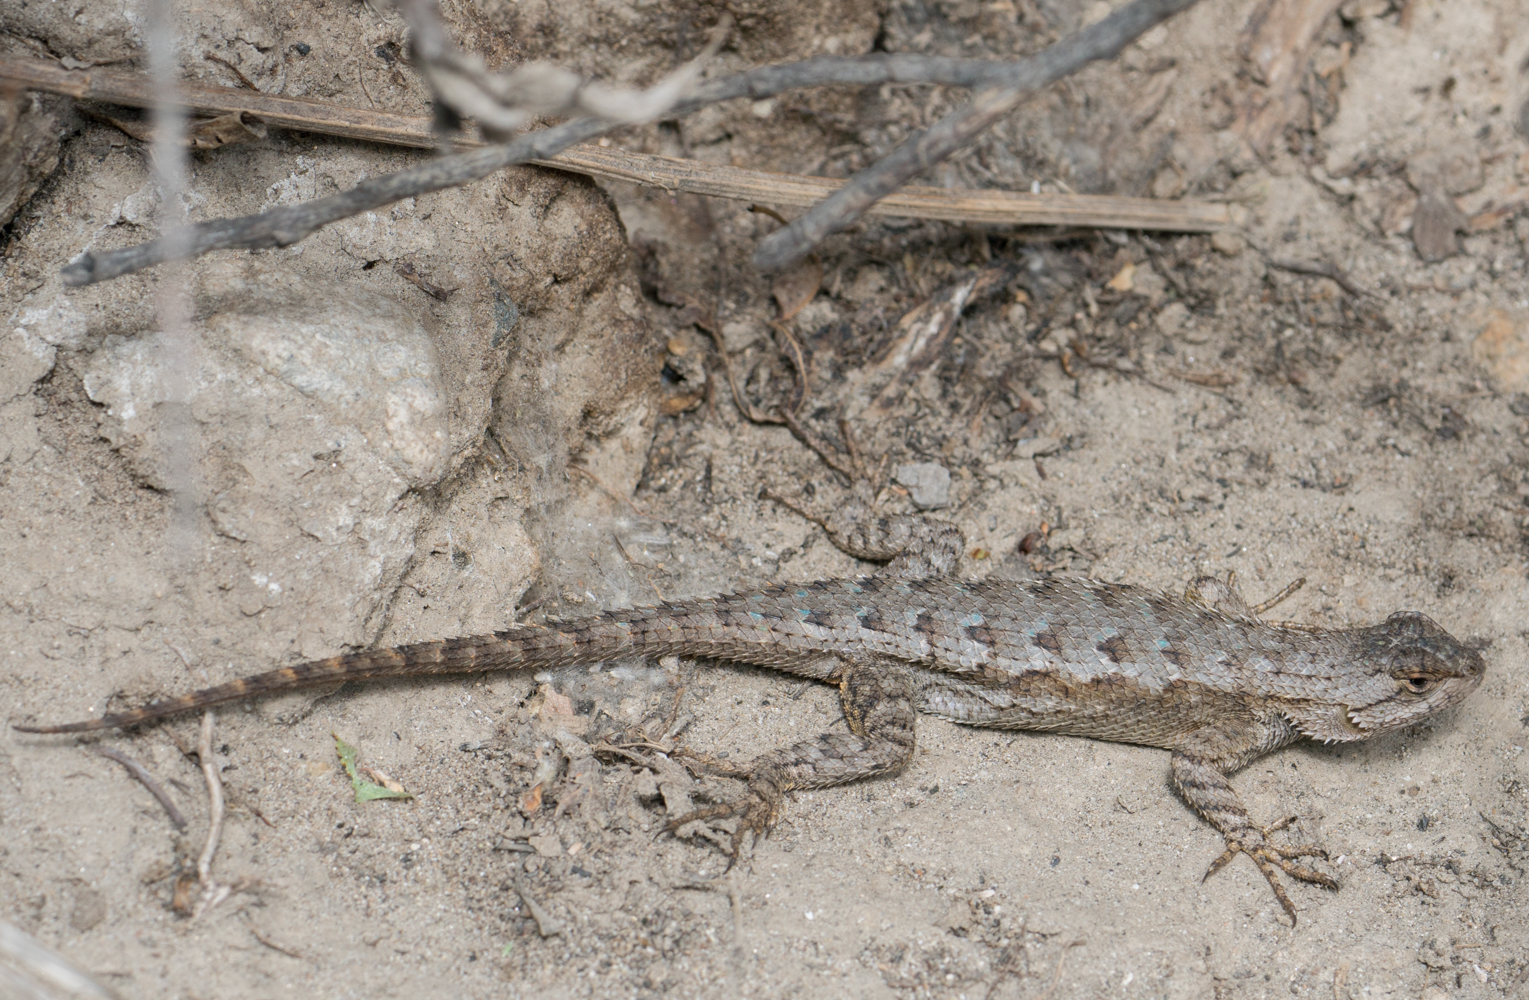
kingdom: Animalia
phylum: Chordata
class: Squamata
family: Phrynosomatidae
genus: Sceloporus
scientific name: Sceloporus occidentalis
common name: Western fence lizard
